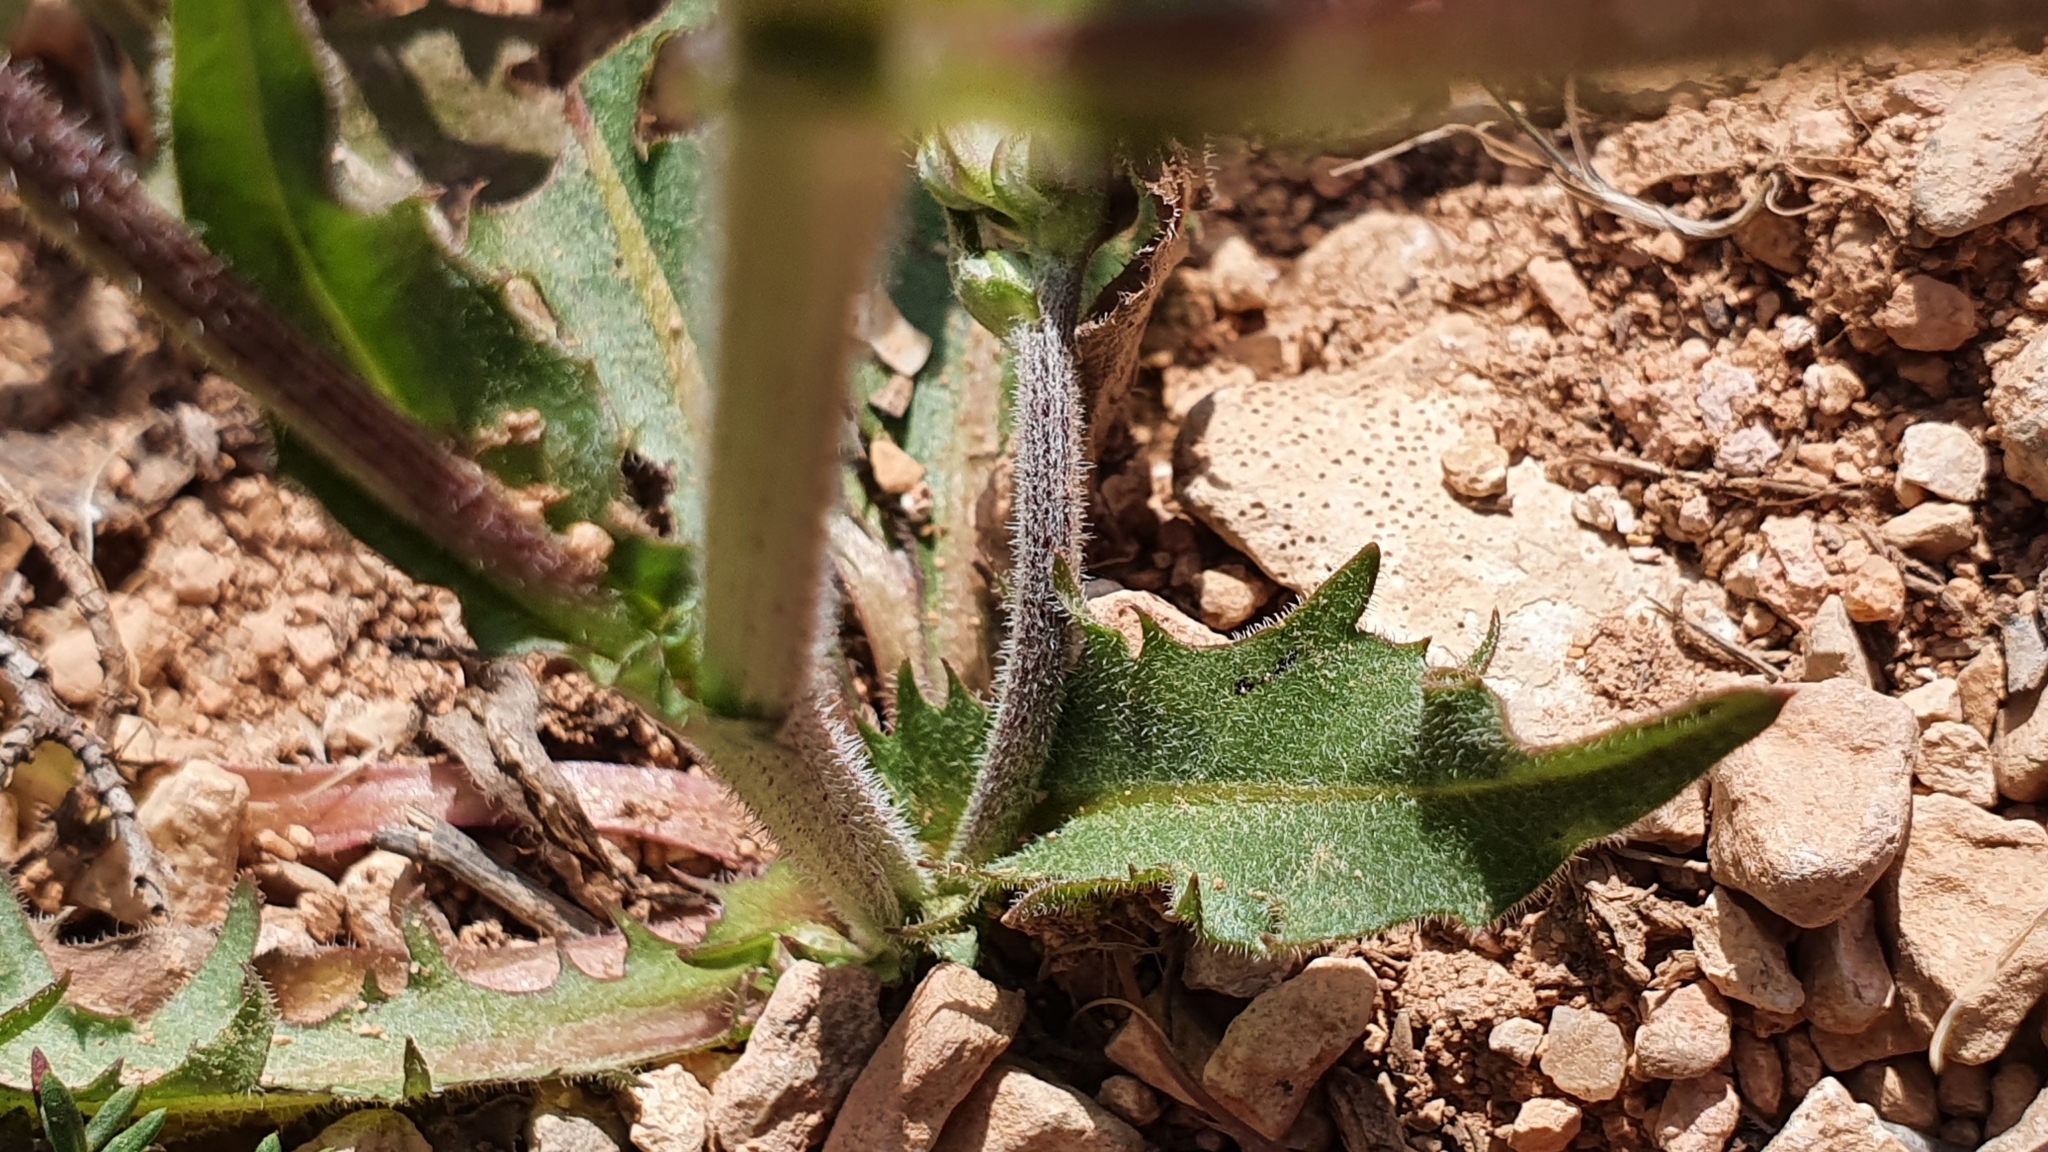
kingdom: Plantae
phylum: Tracheophyta
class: Magnoliopsida
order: Asterales
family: Asteraceae
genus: Crepis
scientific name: Crepis vesicaria
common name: Beaked hawksbeard
